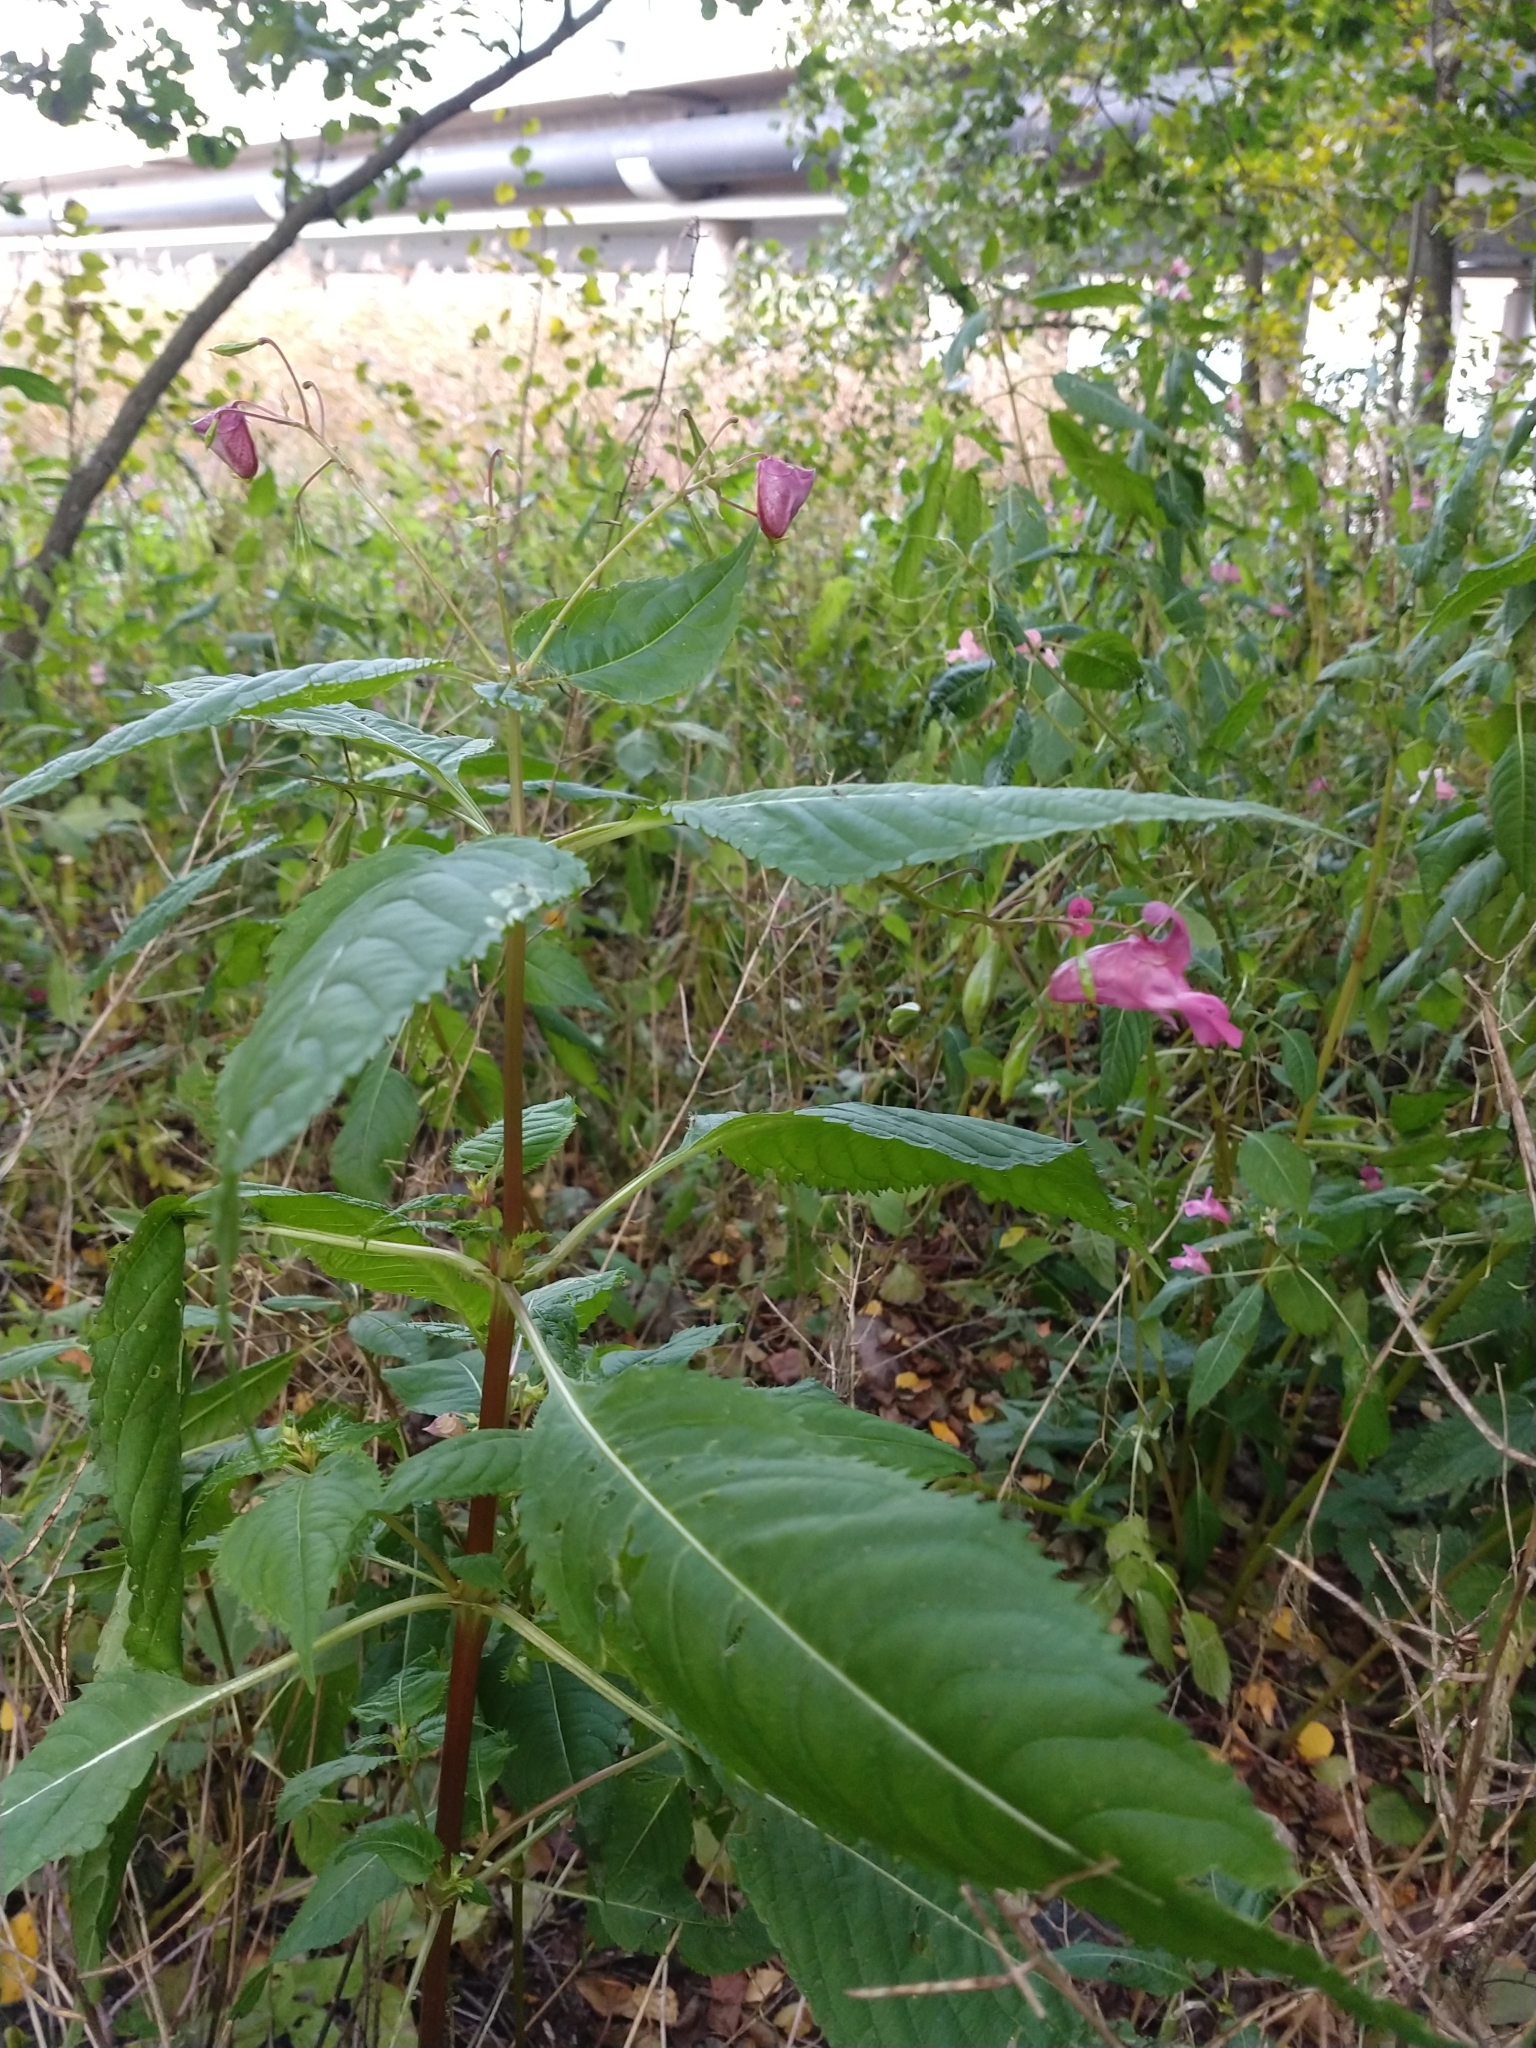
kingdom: Plantae
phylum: Tracheophyta
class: Magnoliopsida
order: Ericales
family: Balsaminaceae
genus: Impatiens
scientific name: Impatiens glandulifera
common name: Himalayan balsam
